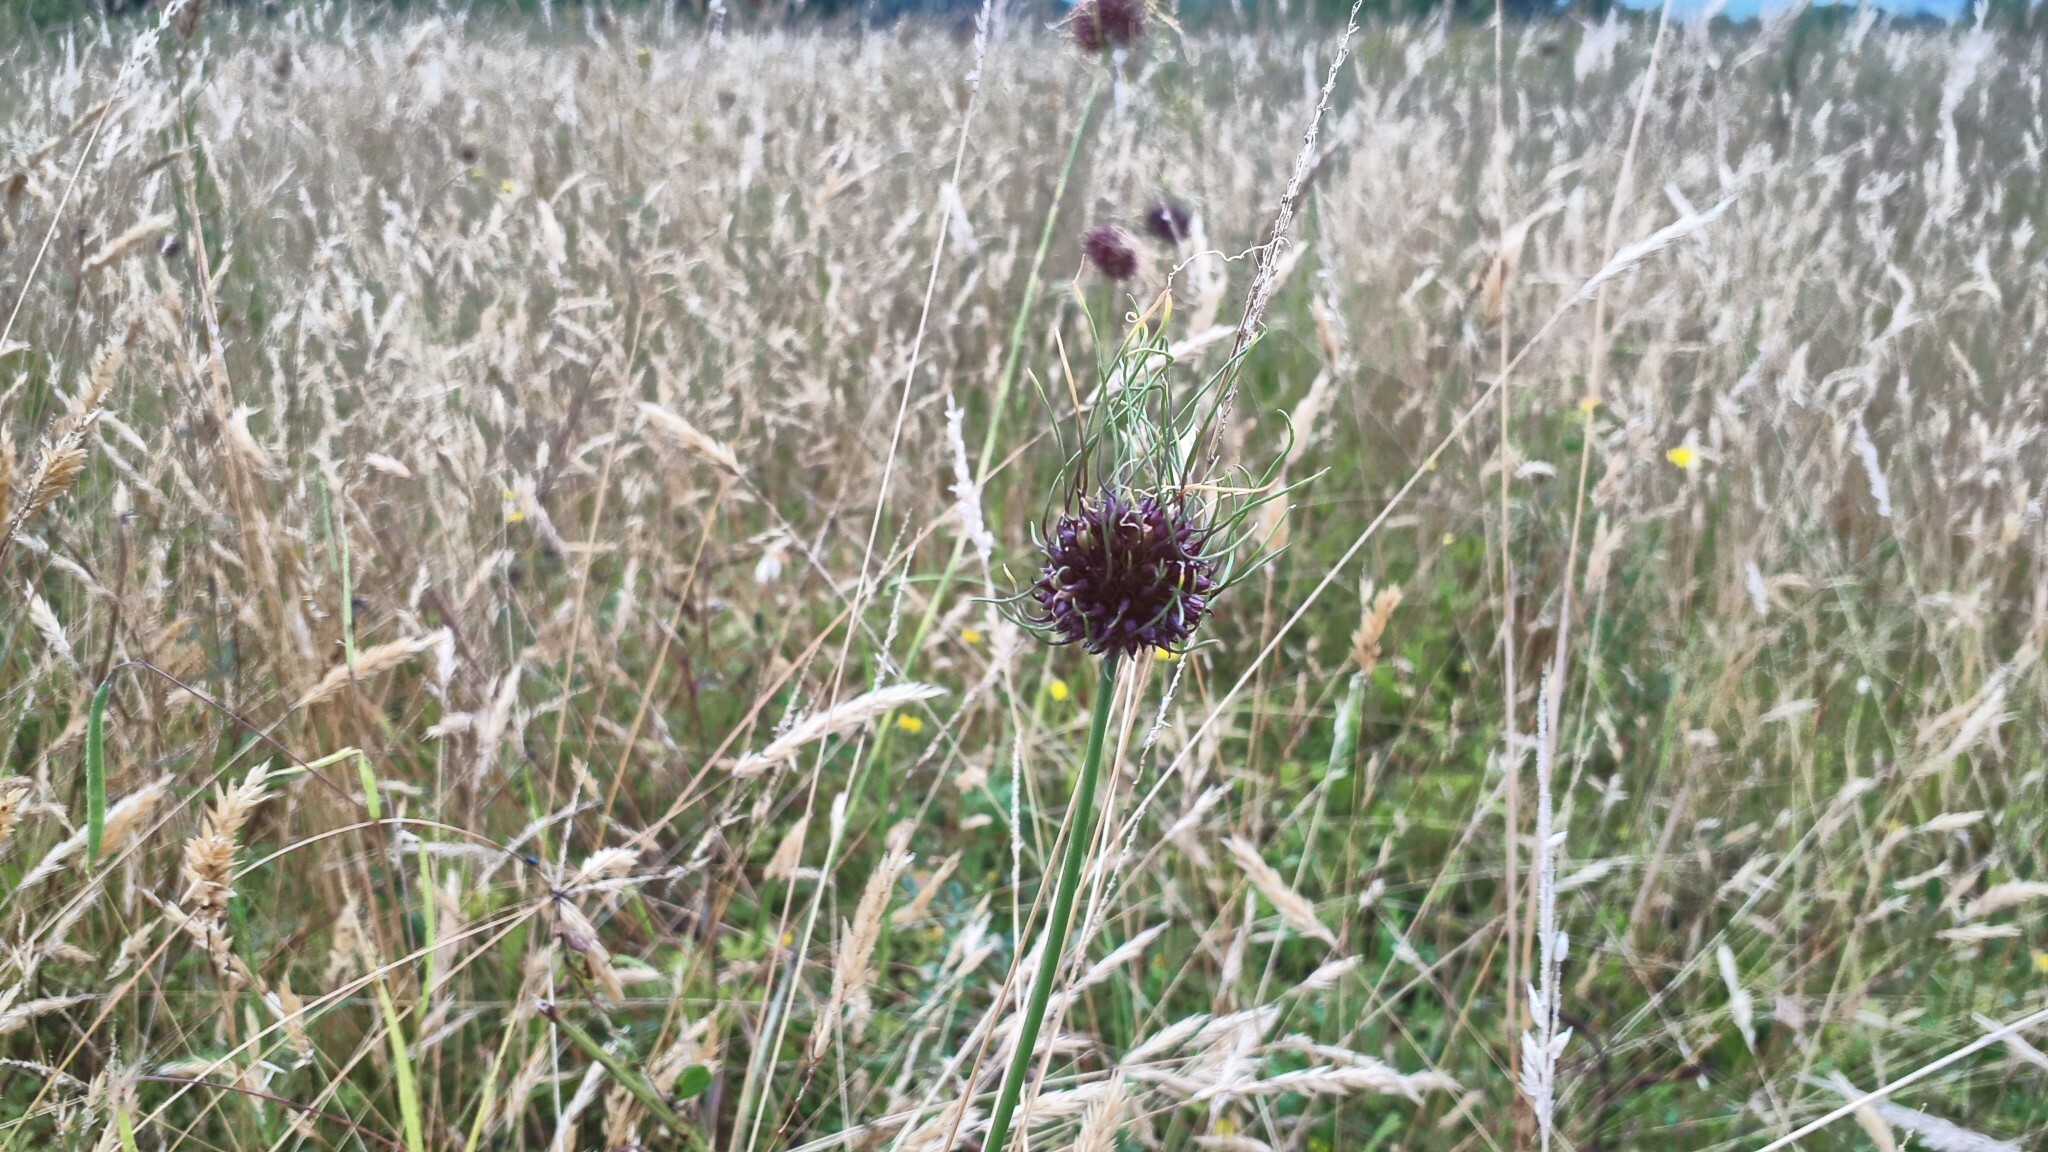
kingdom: Plantae
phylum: Tracheophyta
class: Liliopsida
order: Asparagales
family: Amaryllidaceae
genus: Allium
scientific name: Allium vineale
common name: Crow garlic
